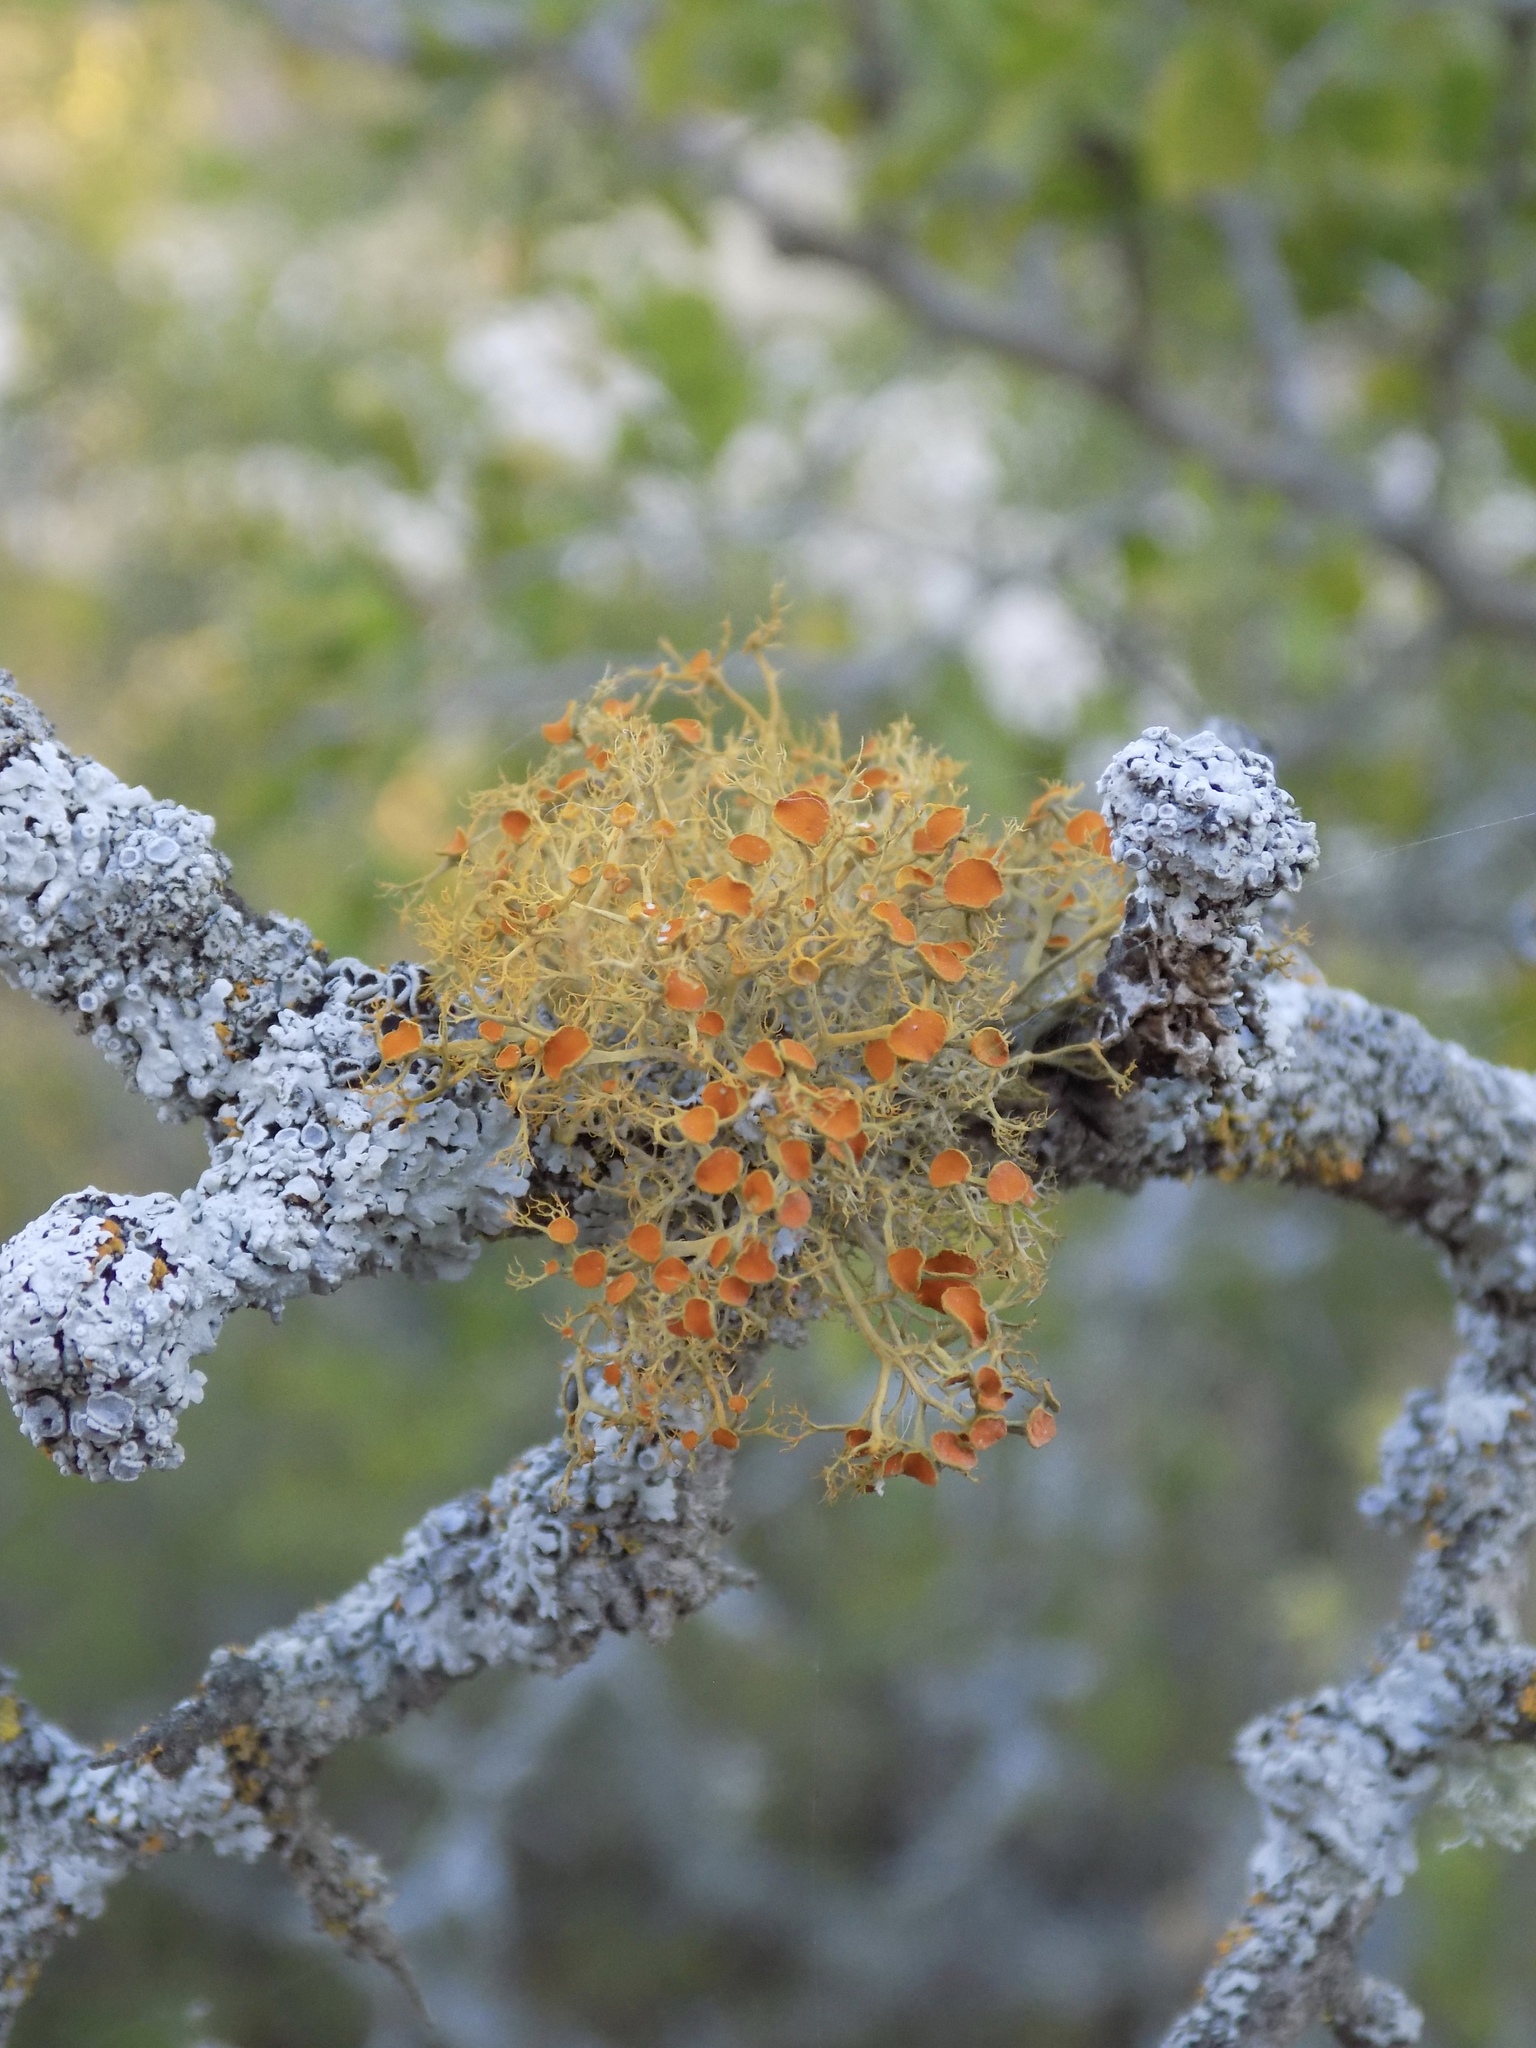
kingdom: Fungi
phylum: Ascomycota
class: Lecanoromycetes
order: Teloschistales
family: Teloschistaceae
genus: Teloschistes
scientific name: Teloschistes exilis
